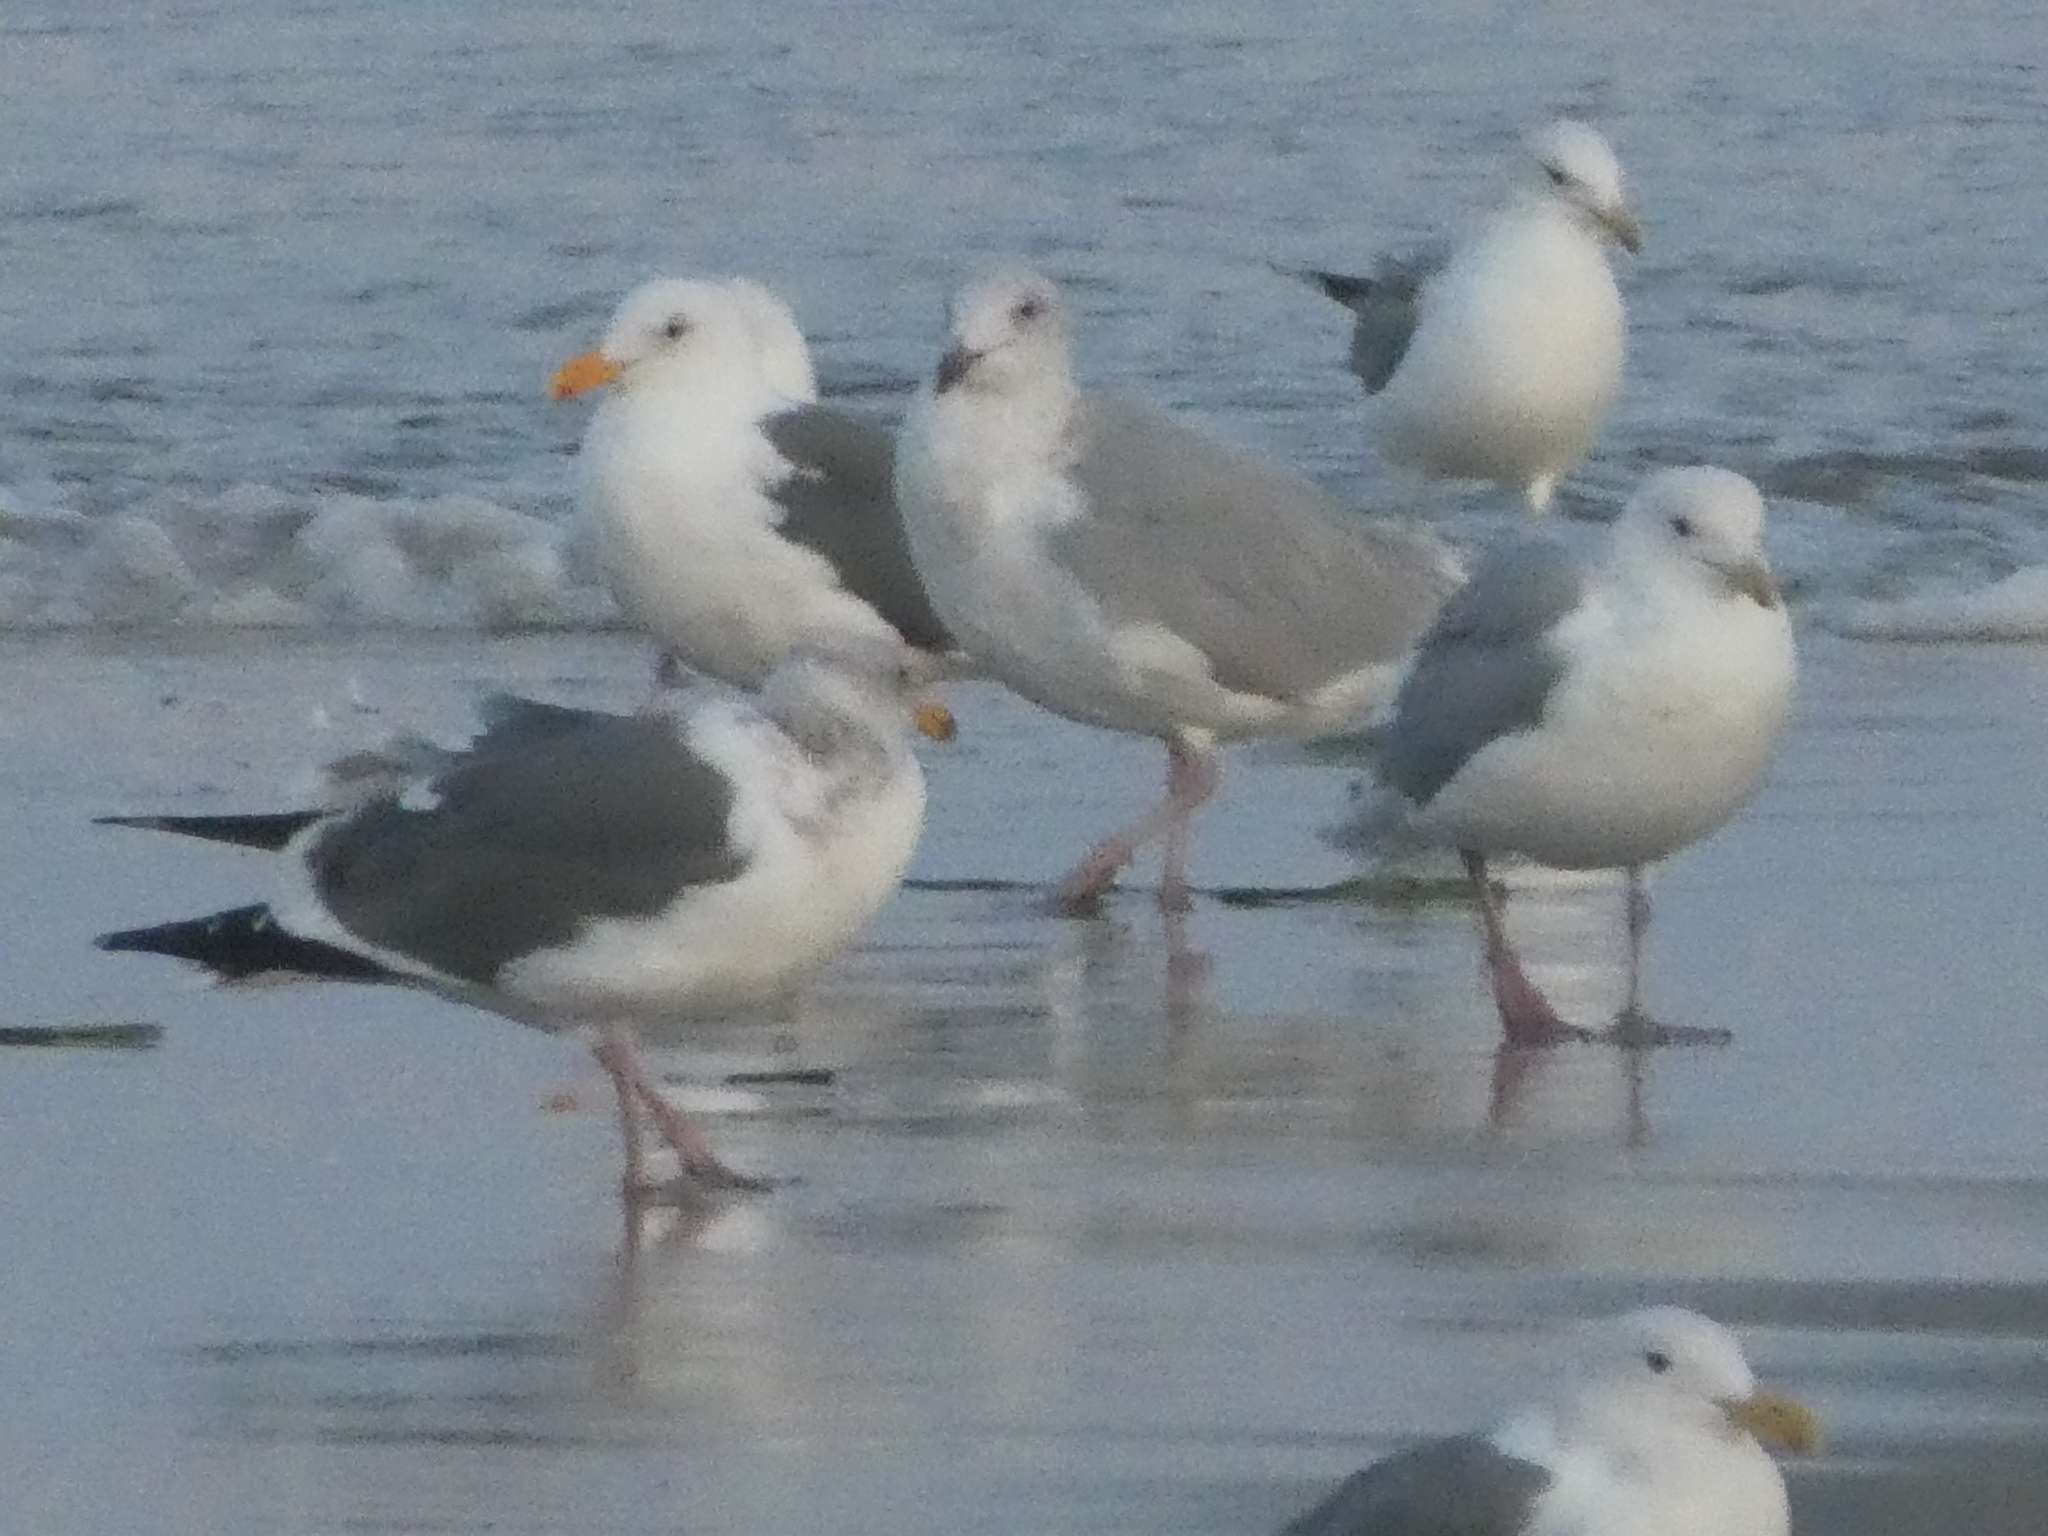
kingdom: Animalia
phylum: Chordata
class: Aves
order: Charadriiformes
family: Laridae
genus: Larus
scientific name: Larus occidentalis
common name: Western gull
